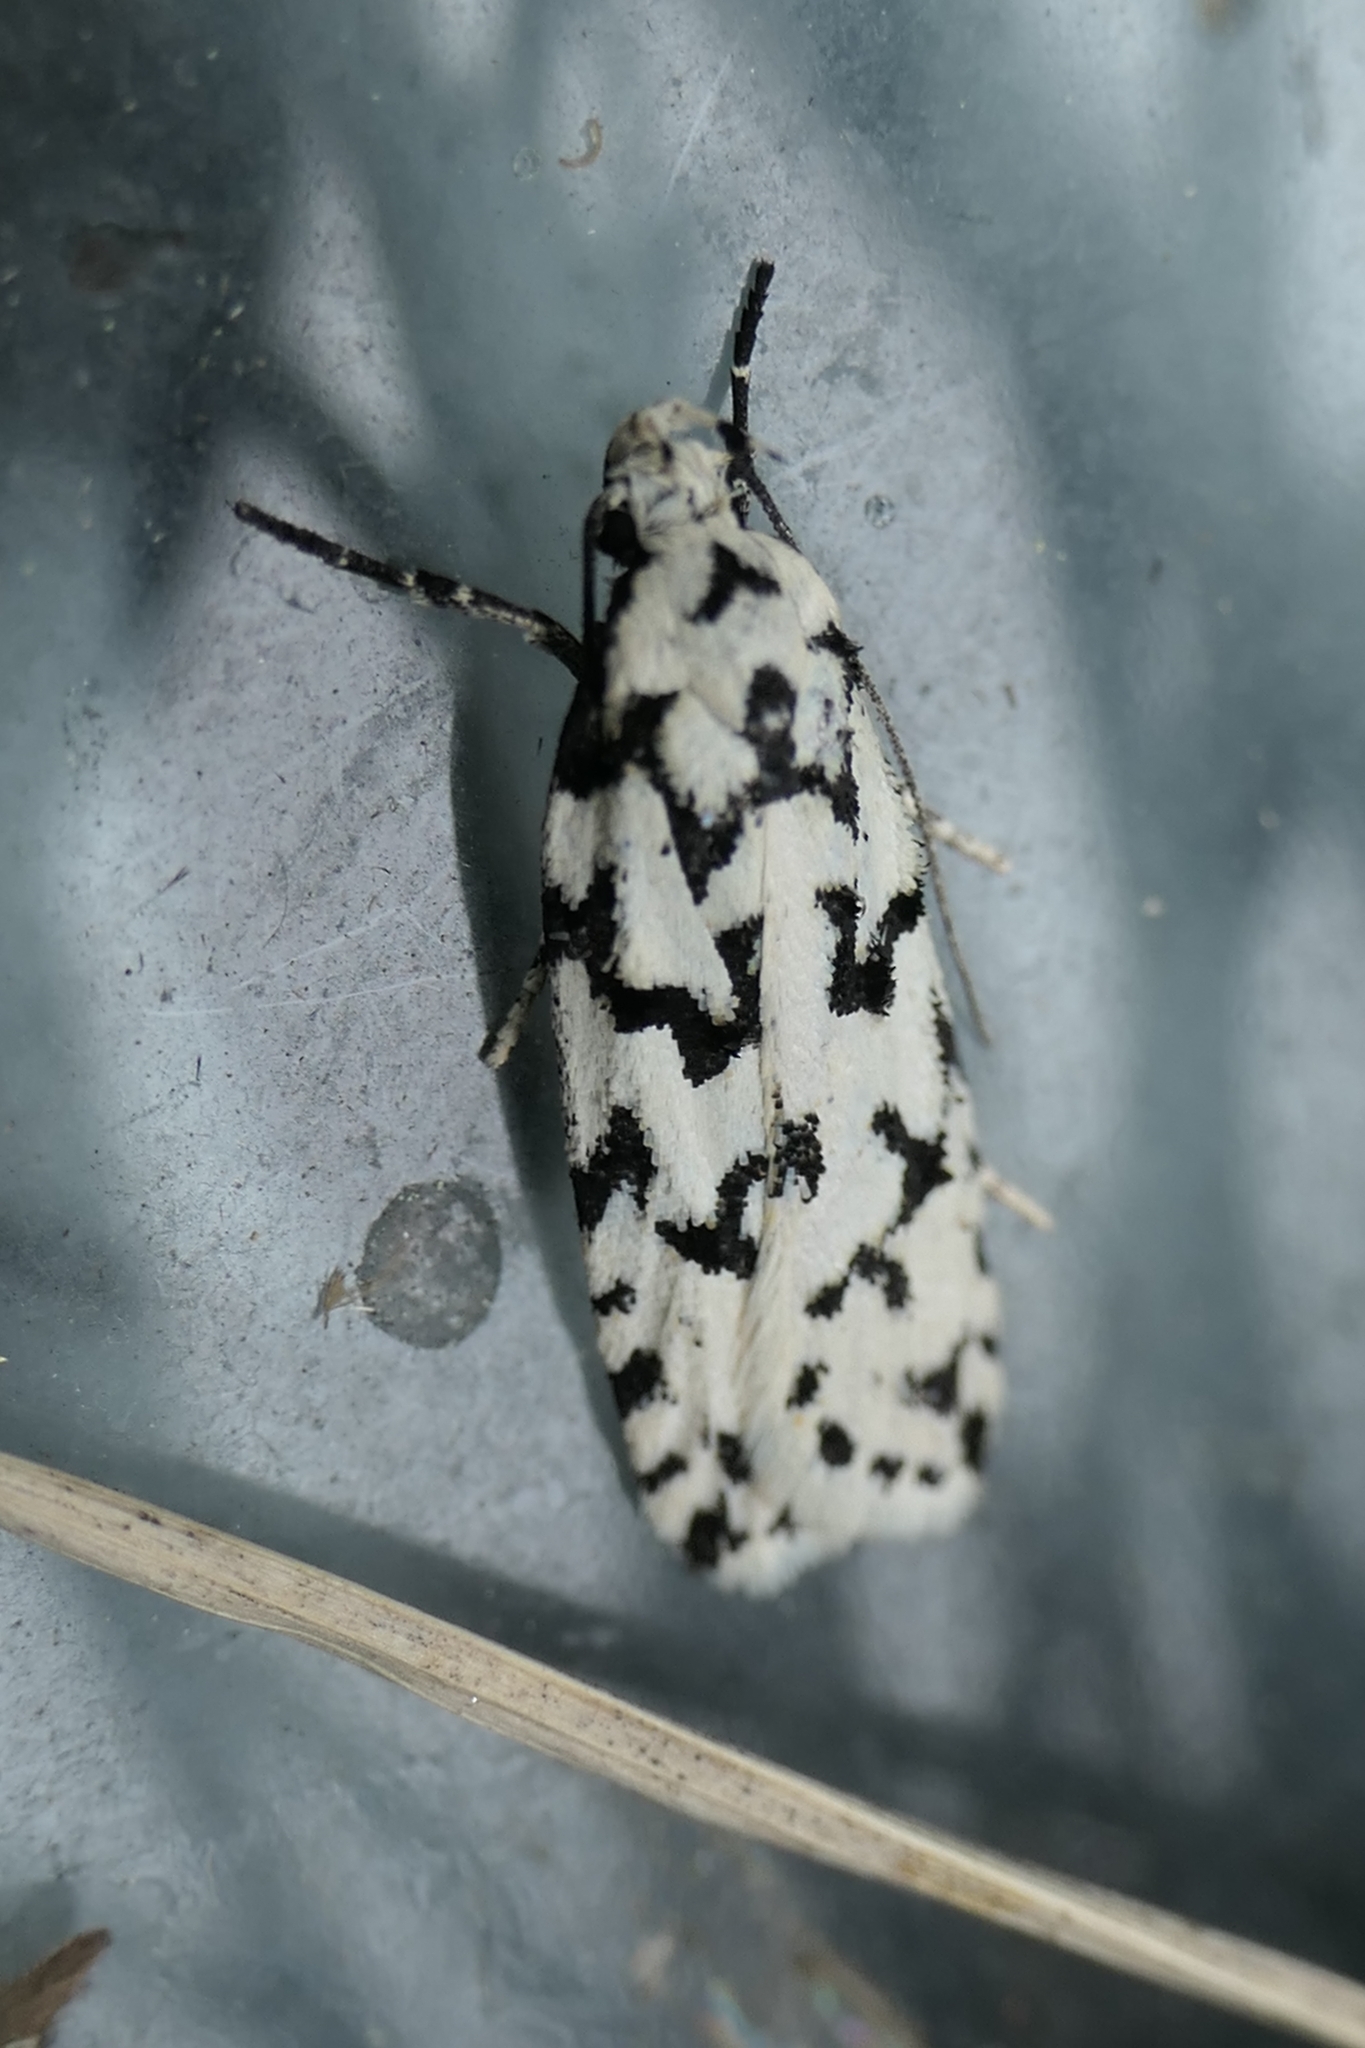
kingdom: Animalia
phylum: Arthropoda
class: Insecta
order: Lepidoptera
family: Oecophoridae
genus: Izatha
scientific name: Izatha katadiktya
